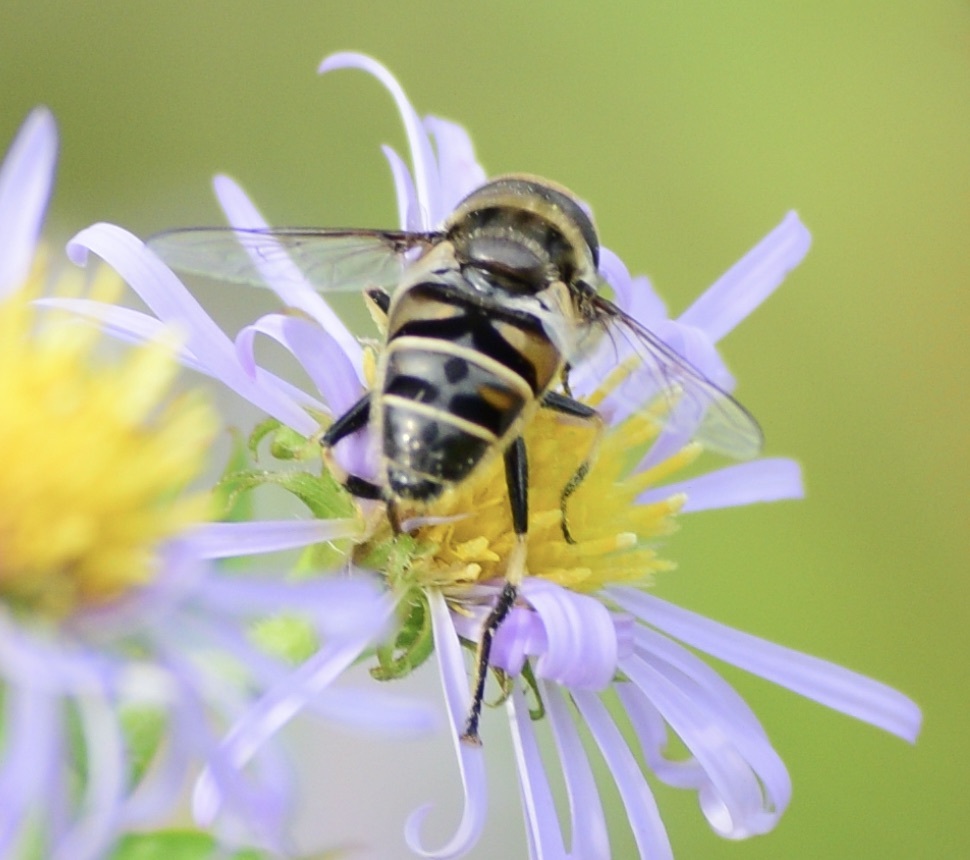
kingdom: Animalia
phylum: Arthropoda
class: Insecta
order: Diptera
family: Syrphidae
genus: Eristalis
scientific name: Eristalis dimidiata
